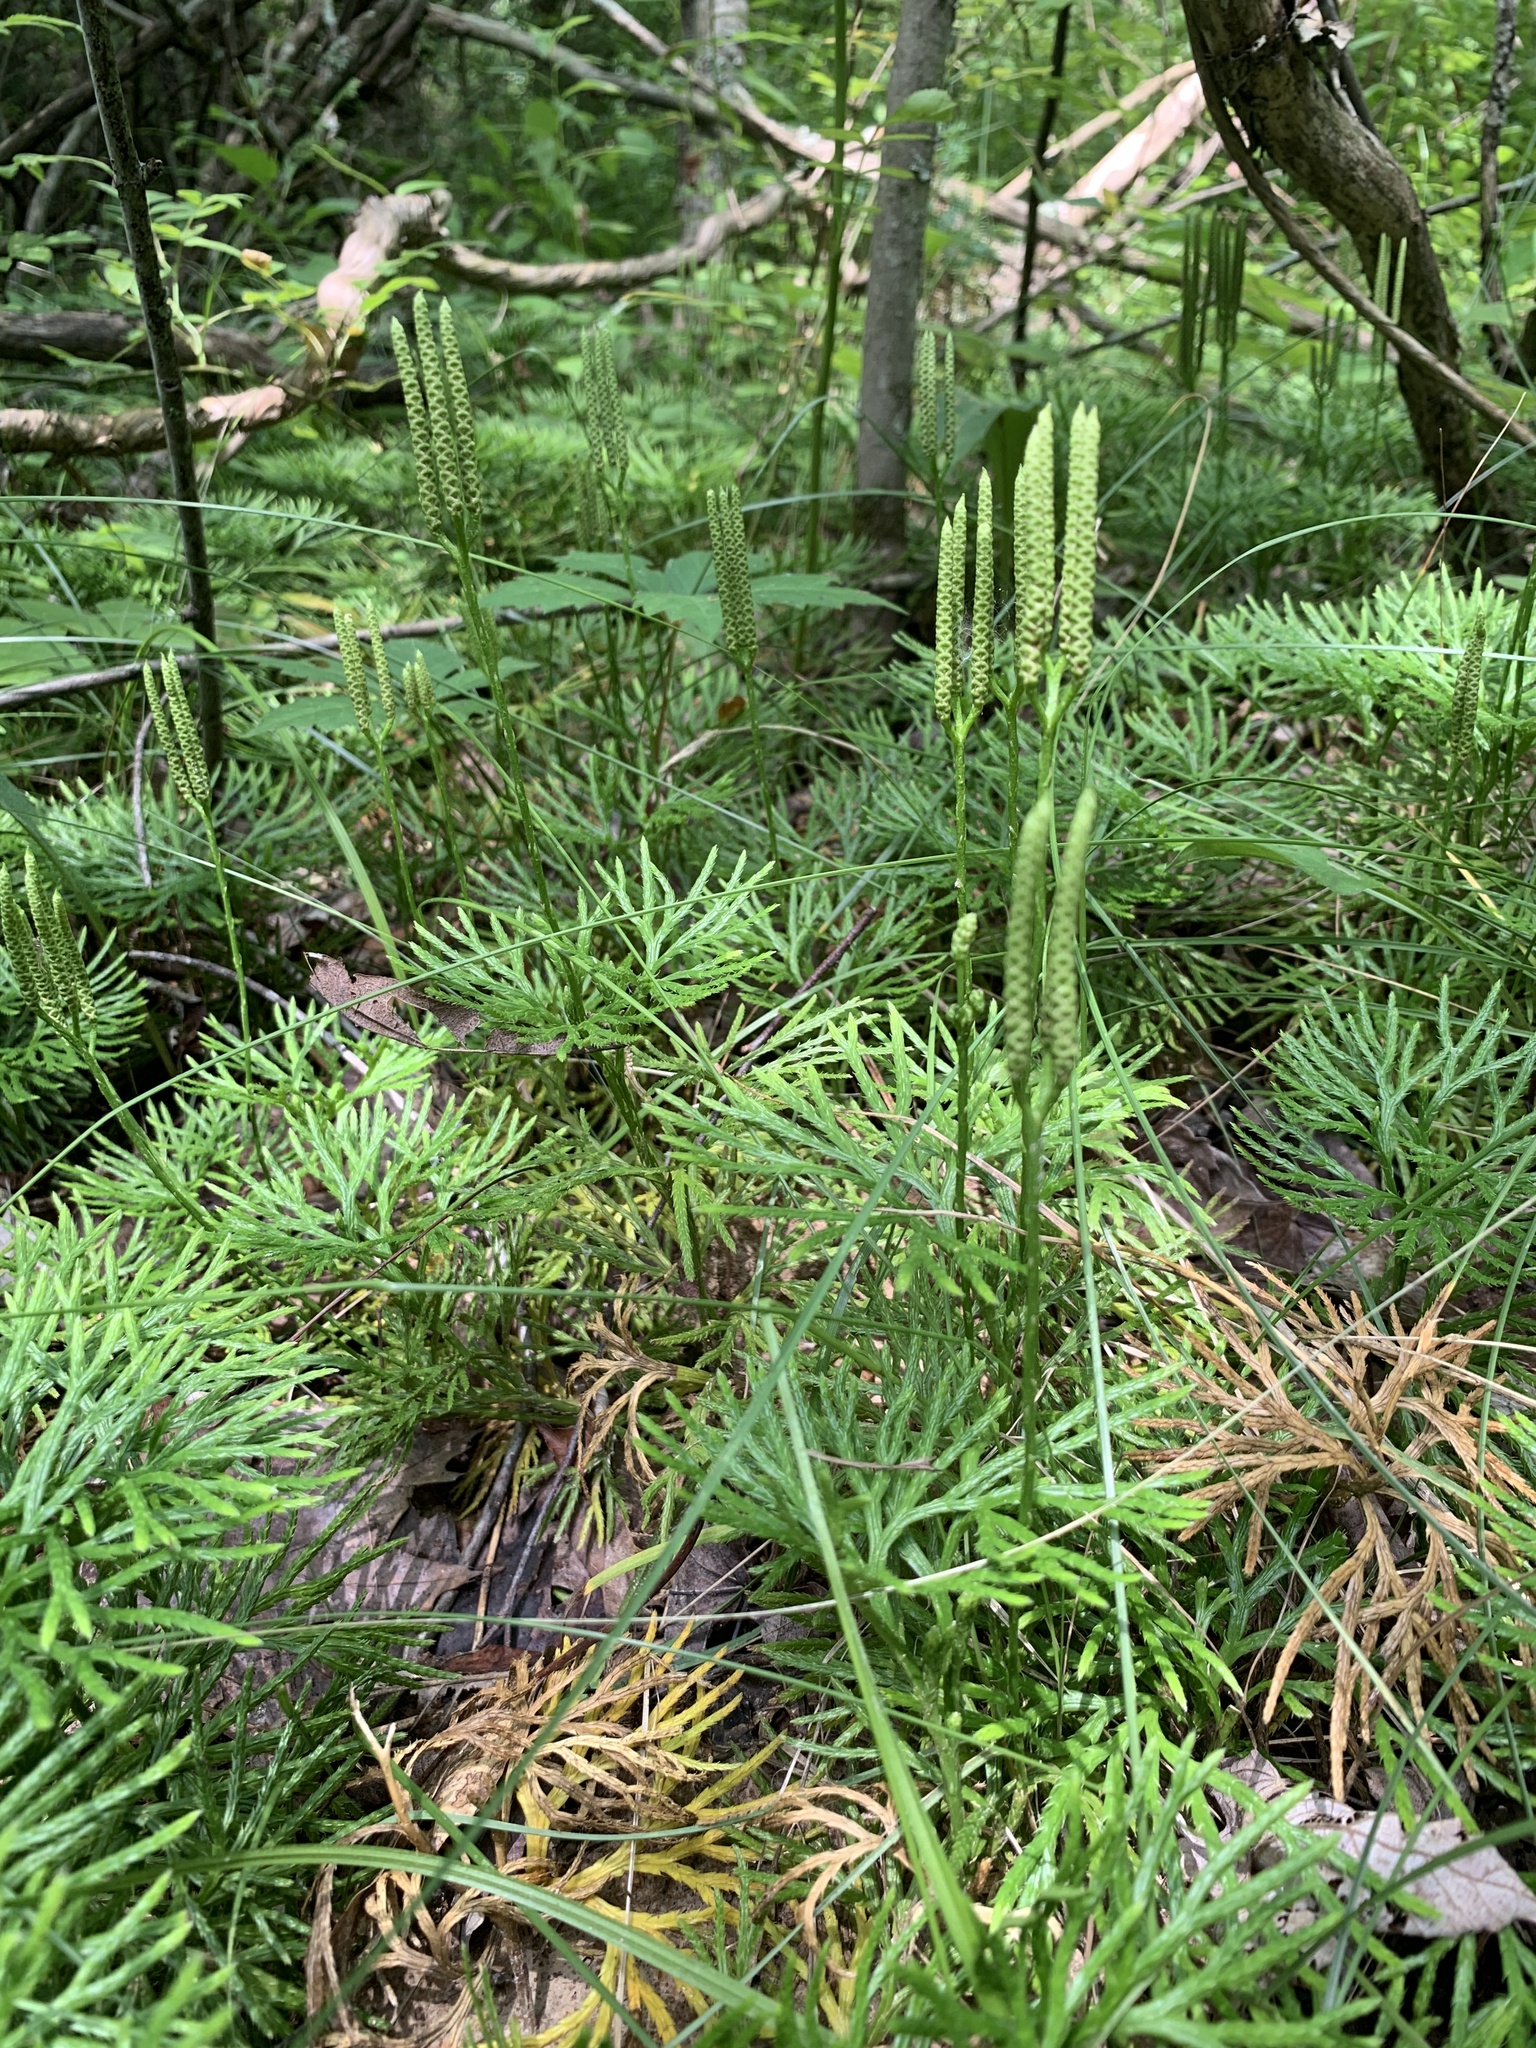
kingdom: Plantae
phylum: Tracheophyta
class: Lycopodiopsida
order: Lycopodiales
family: Lycopodiaceae
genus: Diphasiastrum
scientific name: Diphasiastrum digitatum
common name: Southern running-pine
